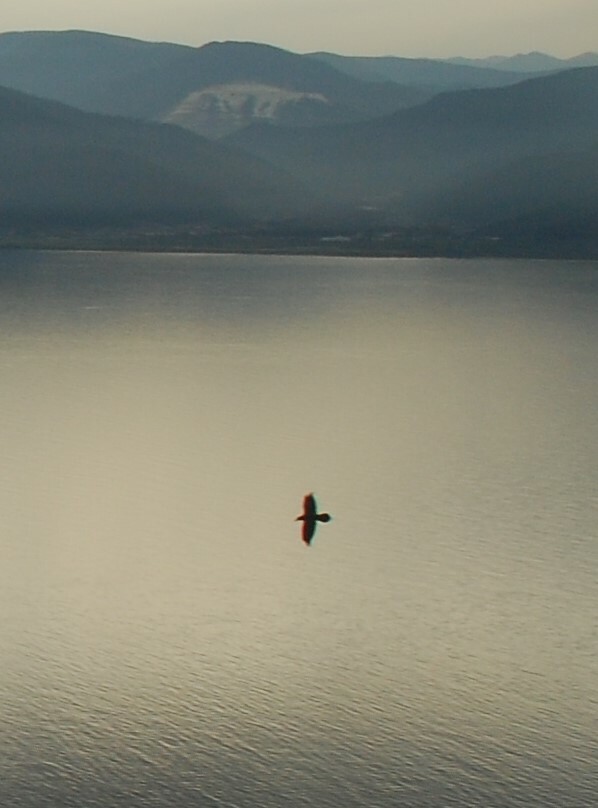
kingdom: Animalia
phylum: Chordata
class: Aves
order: Passeriformes
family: Corvidae
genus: Corvus
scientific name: Corvus corax
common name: Common raven
